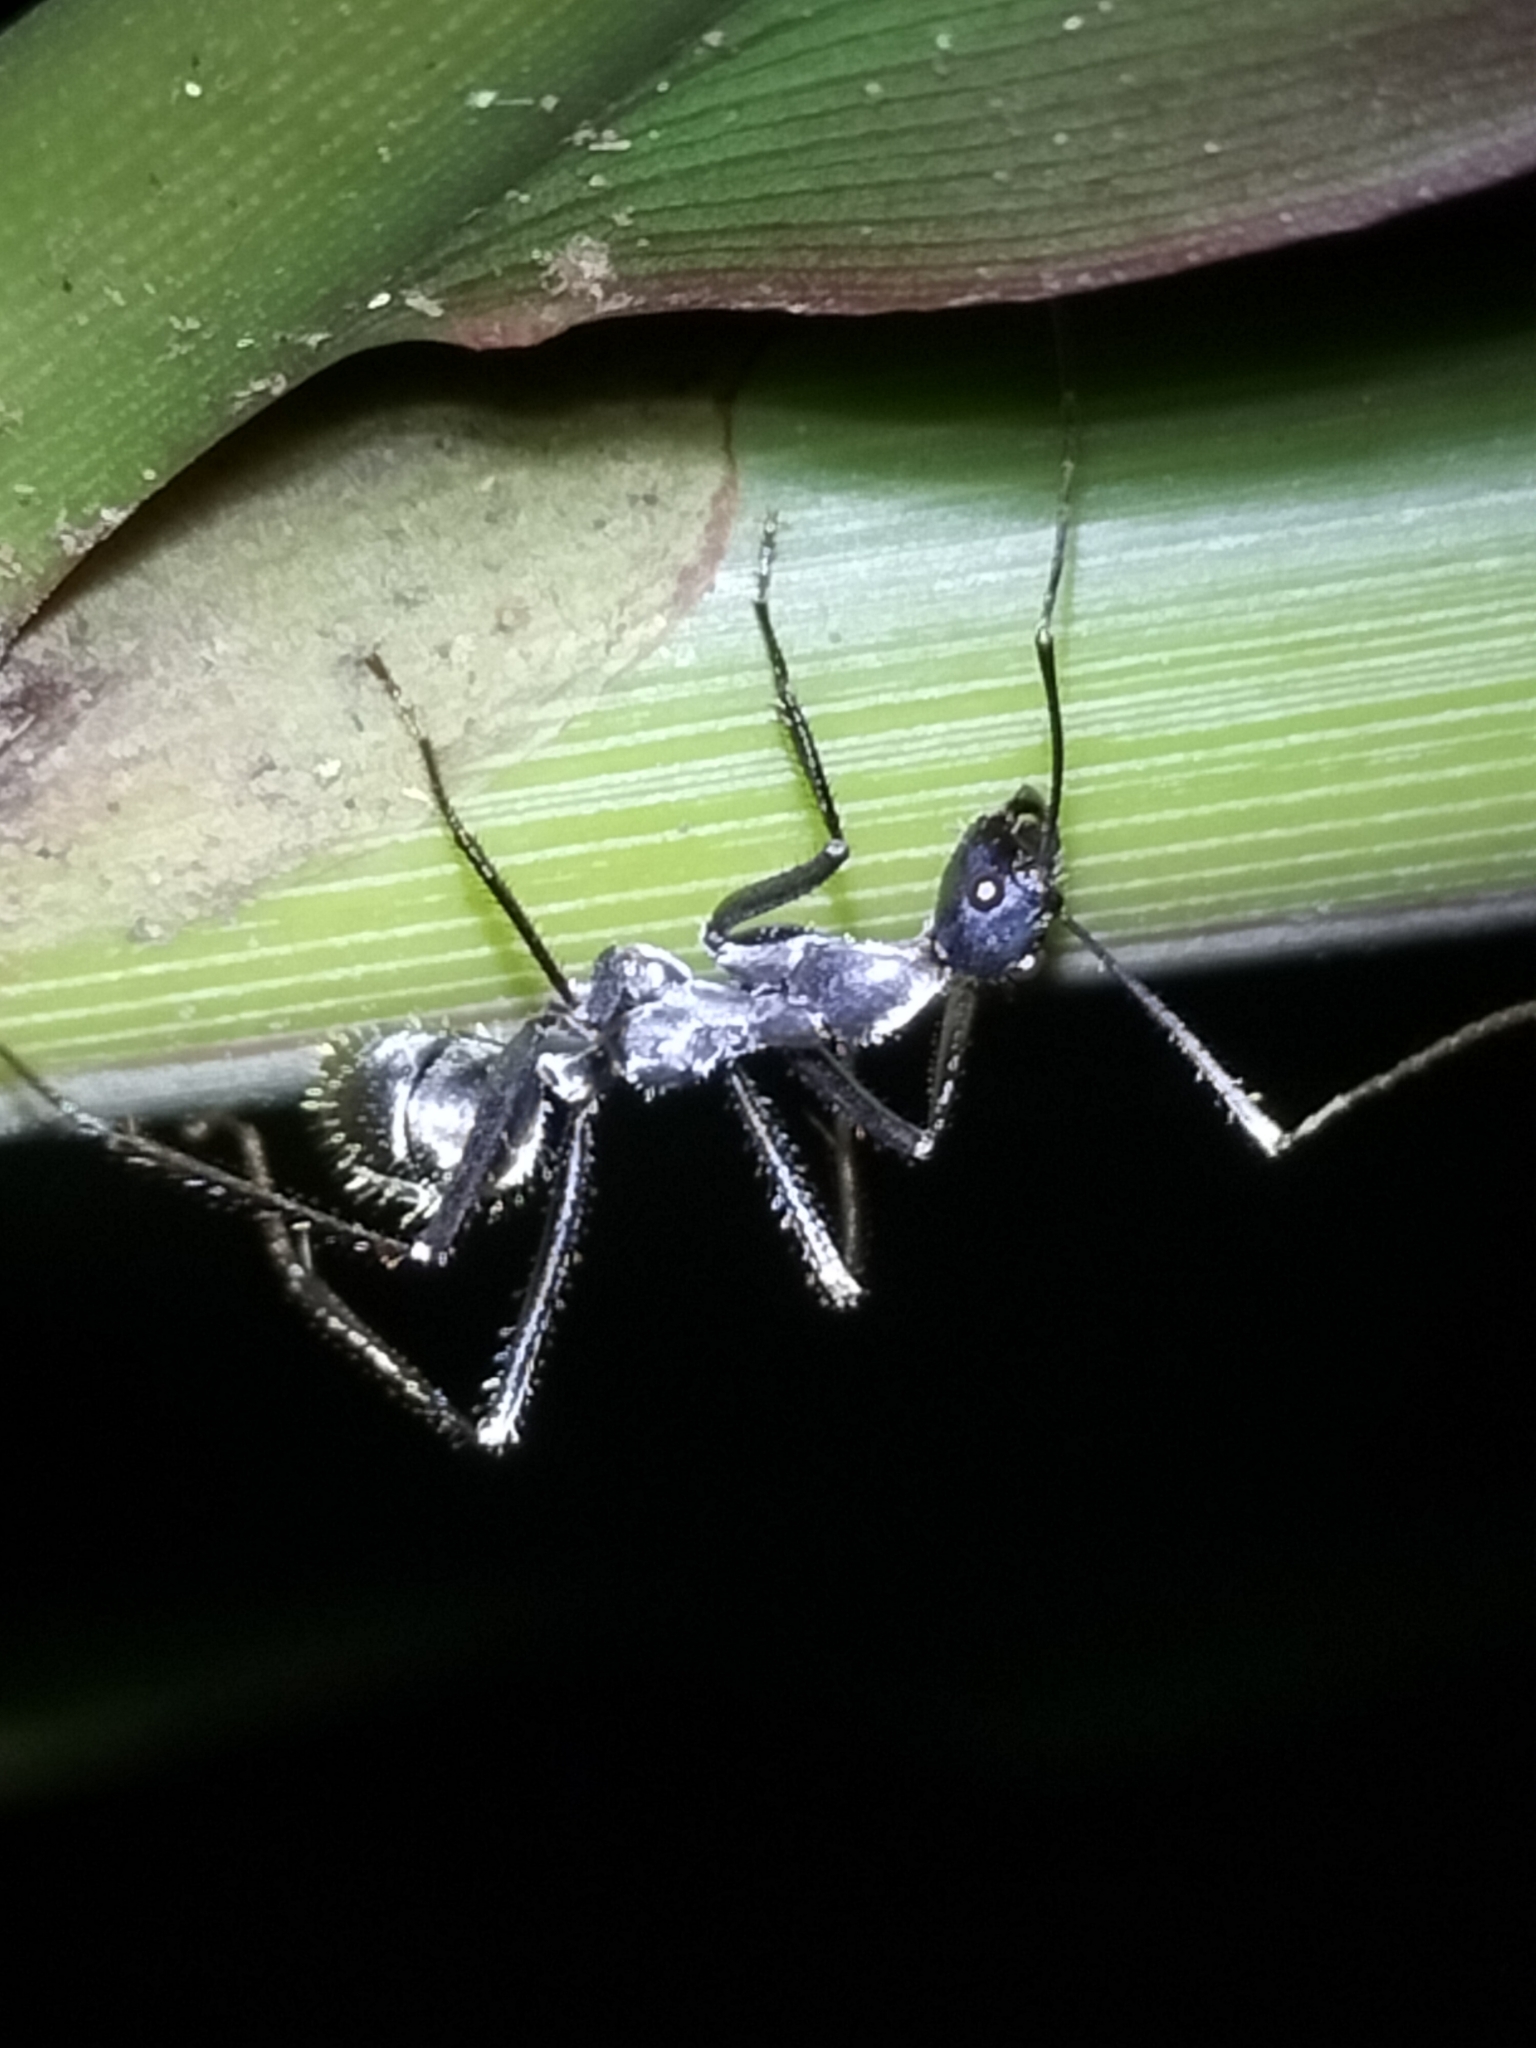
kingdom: Animalia
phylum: Arthropoda
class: Insecta
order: Hymenoptera
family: Formicidae
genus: Notostigma
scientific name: Notostigma carazzii
